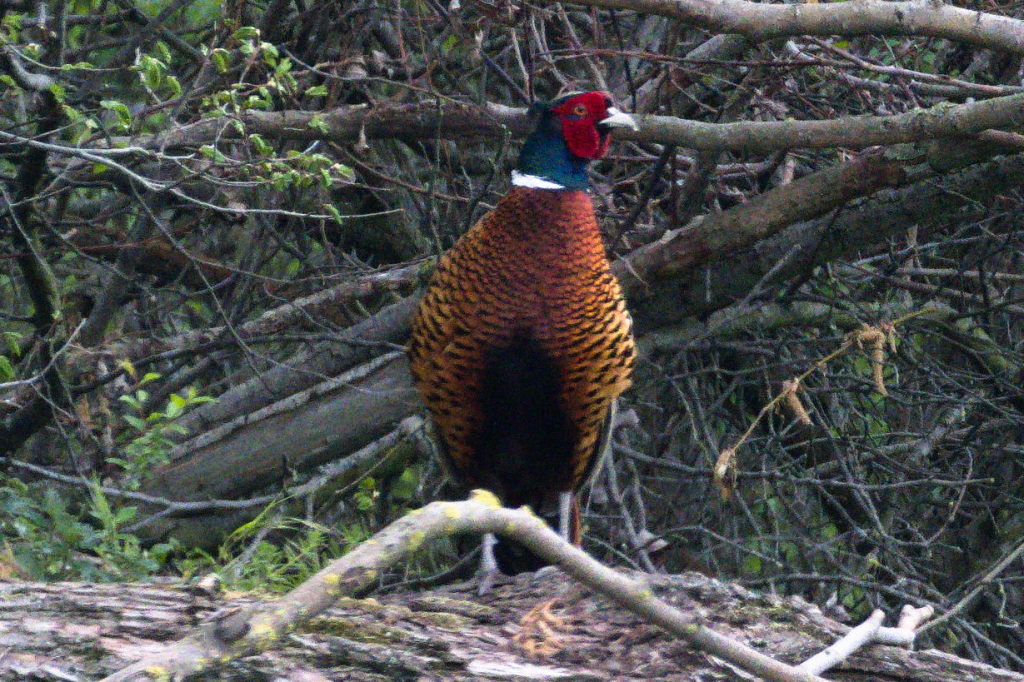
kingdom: Animalia
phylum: Chordata
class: Aves
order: Galliformes
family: Phasianidae
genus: Phasianus
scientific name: Phasianus colchicus
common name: Common pheasant
